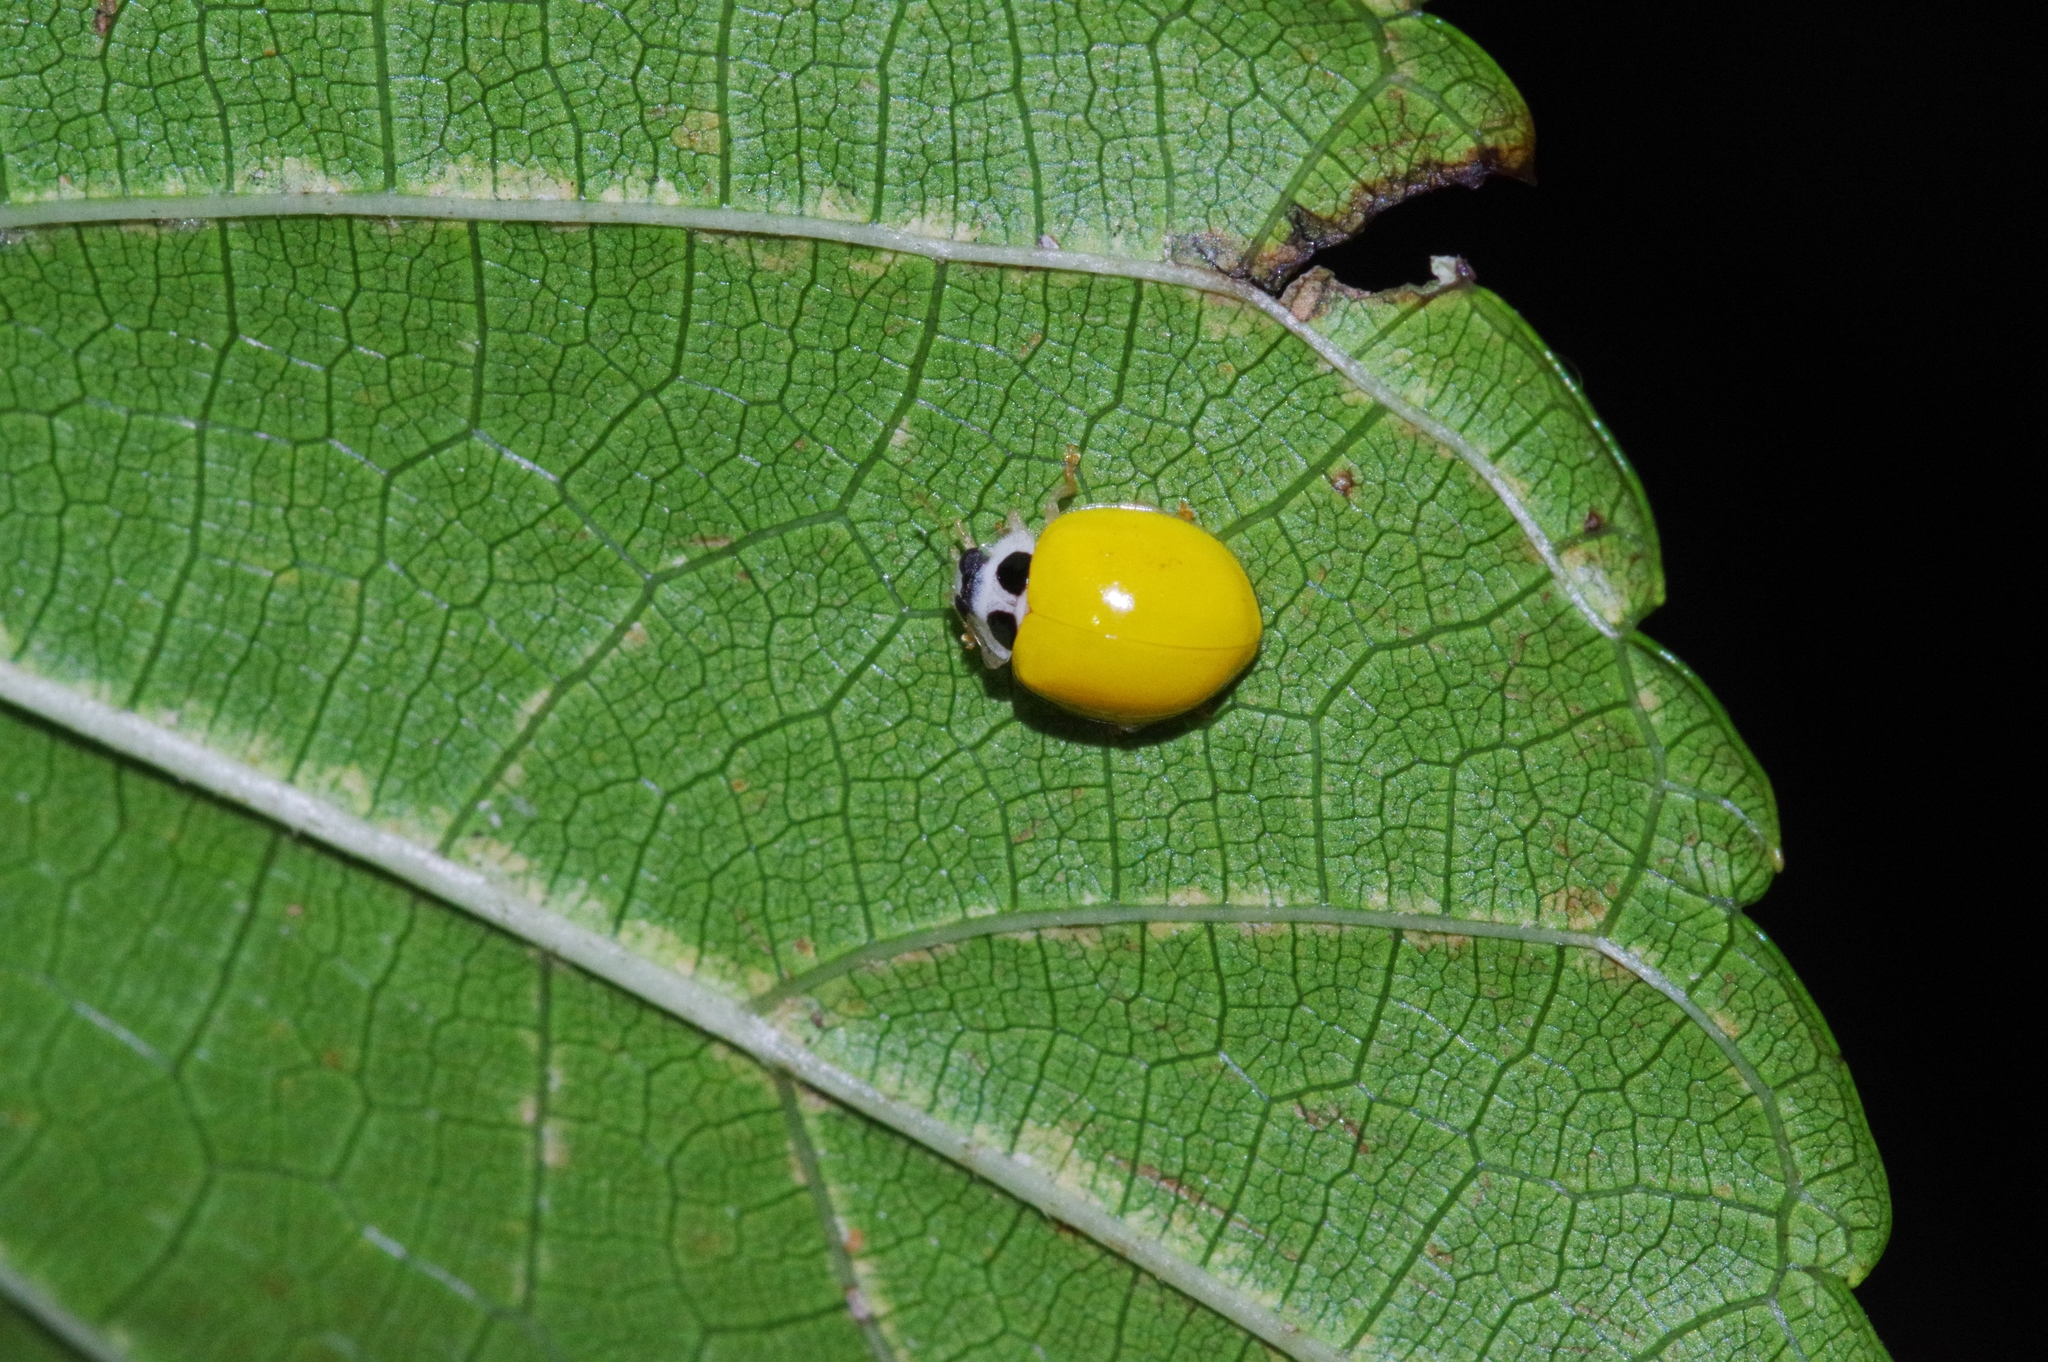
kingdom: Animalia
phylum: Arthropoda
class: Insecta
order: Coleoptera
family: Coccinellidae
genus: Illeis
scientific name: Illeis koebelei
